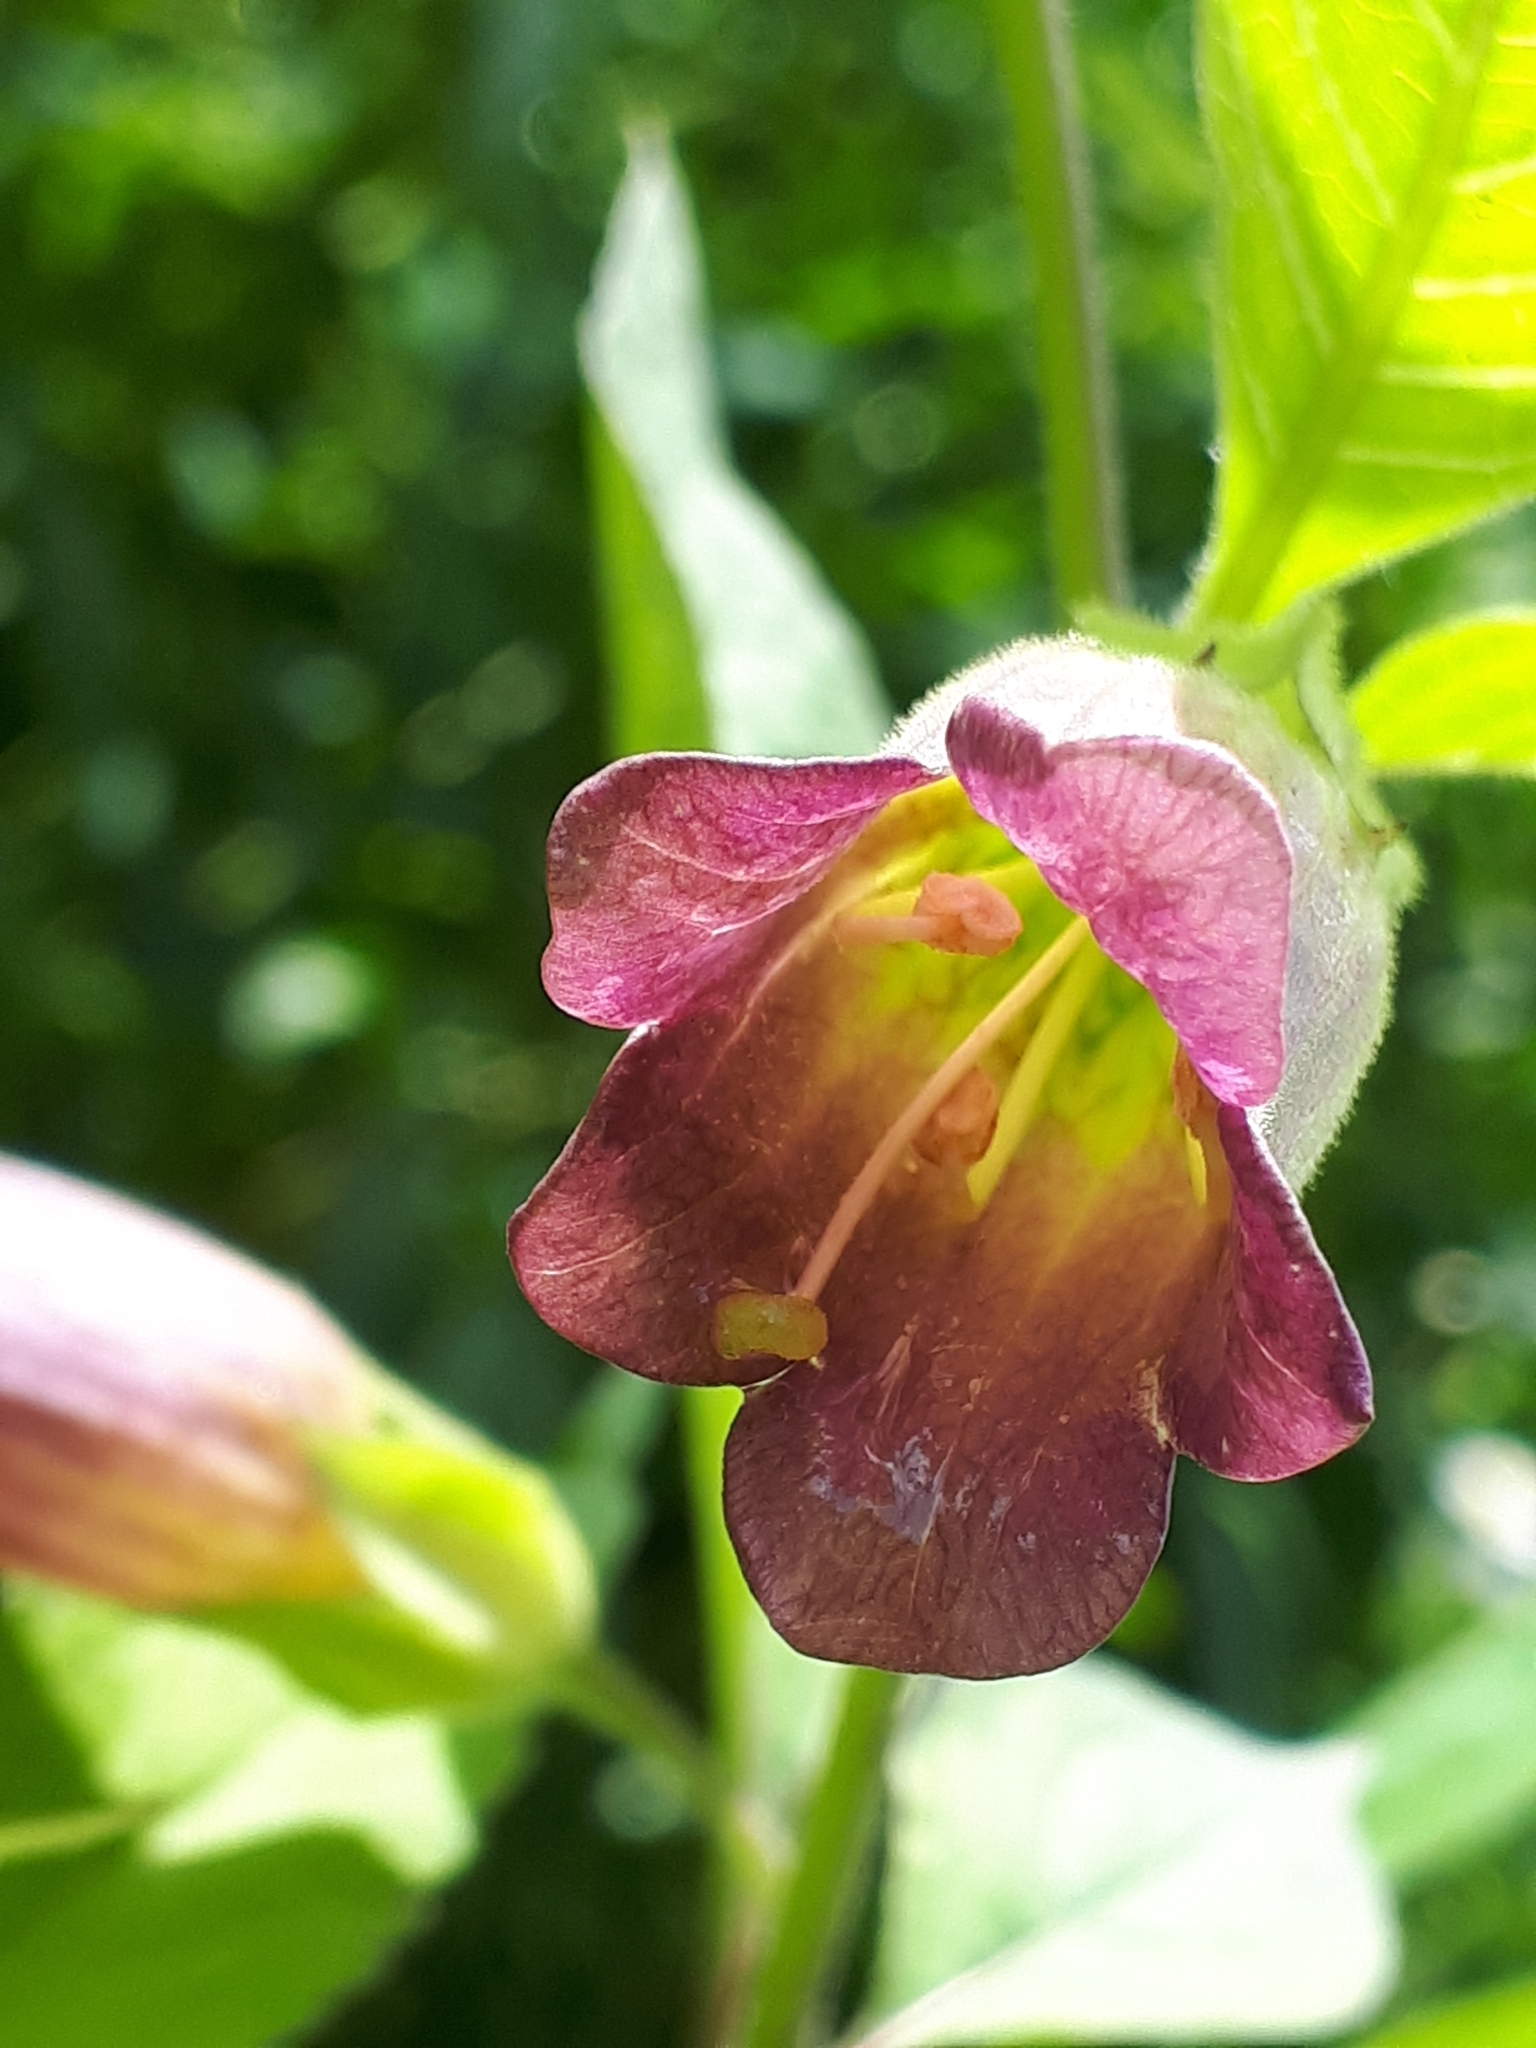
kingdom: Plantae
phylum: Tracheophyta
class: Magnoliopsida
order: Solanales
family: Solanaceae
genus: Atropa
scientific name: Atropa belladonna
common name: Deadly nightshade
